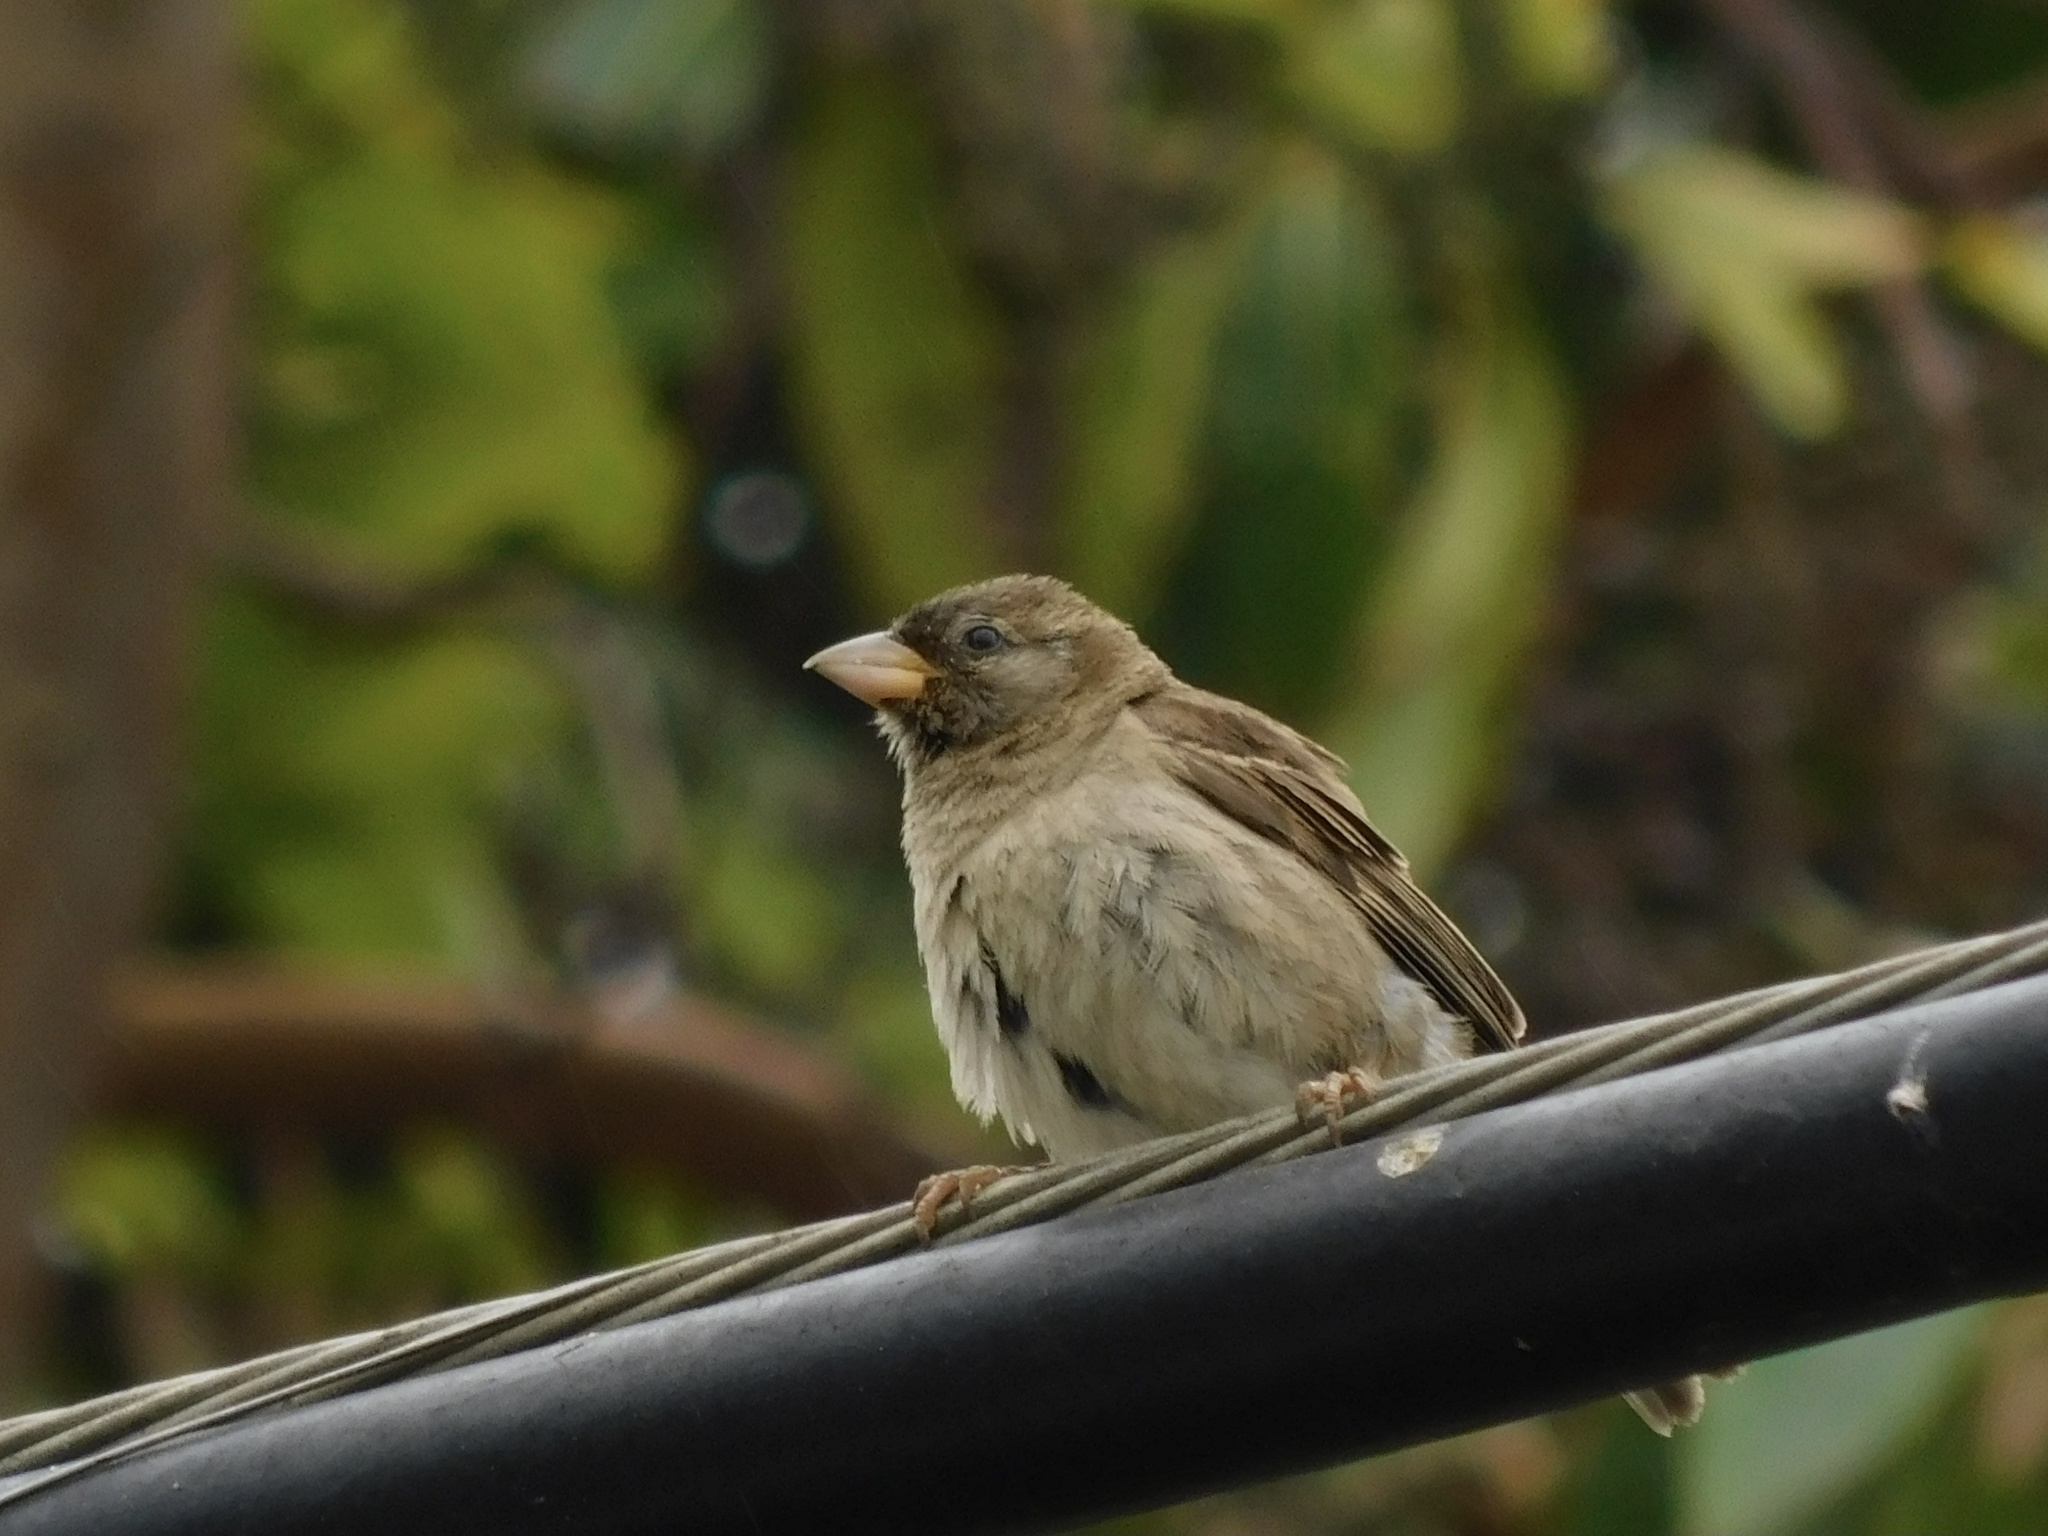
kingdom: Animalia
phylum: Chordata
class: Aves
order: Passeriformes
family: Passeridae
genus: Passer
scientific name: Passer domesticus
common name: House sparrow
